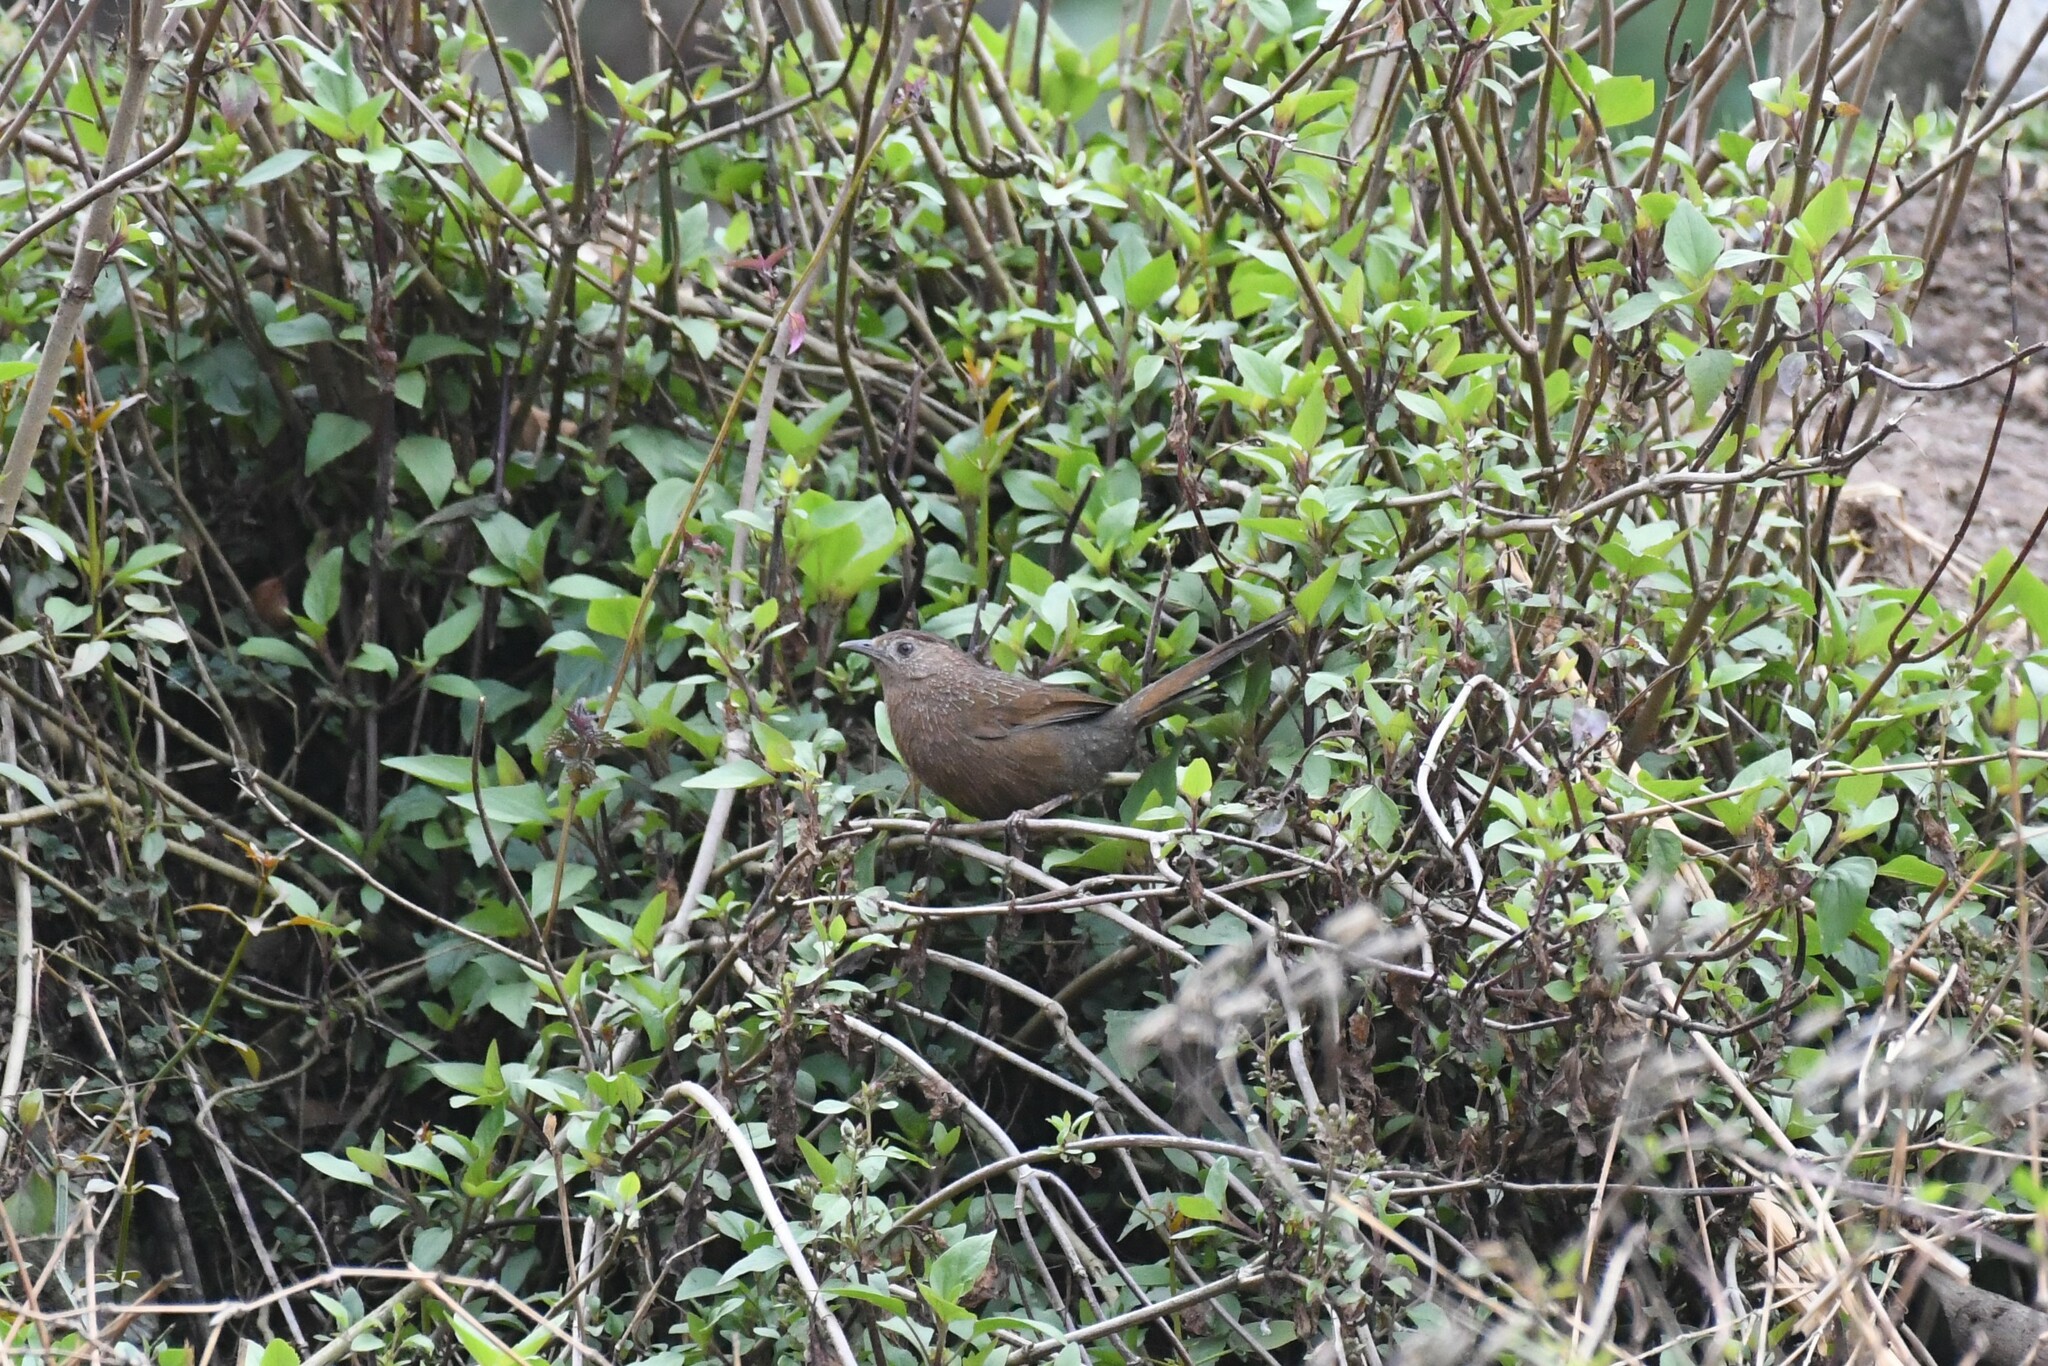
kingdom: Animalia
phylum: Chordata
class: Aves
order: Passeriformes
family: Leiothrichidae
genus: Trochalopteron
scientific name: Trochalopteron imbricatum
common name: Bhutan laughingthrush
